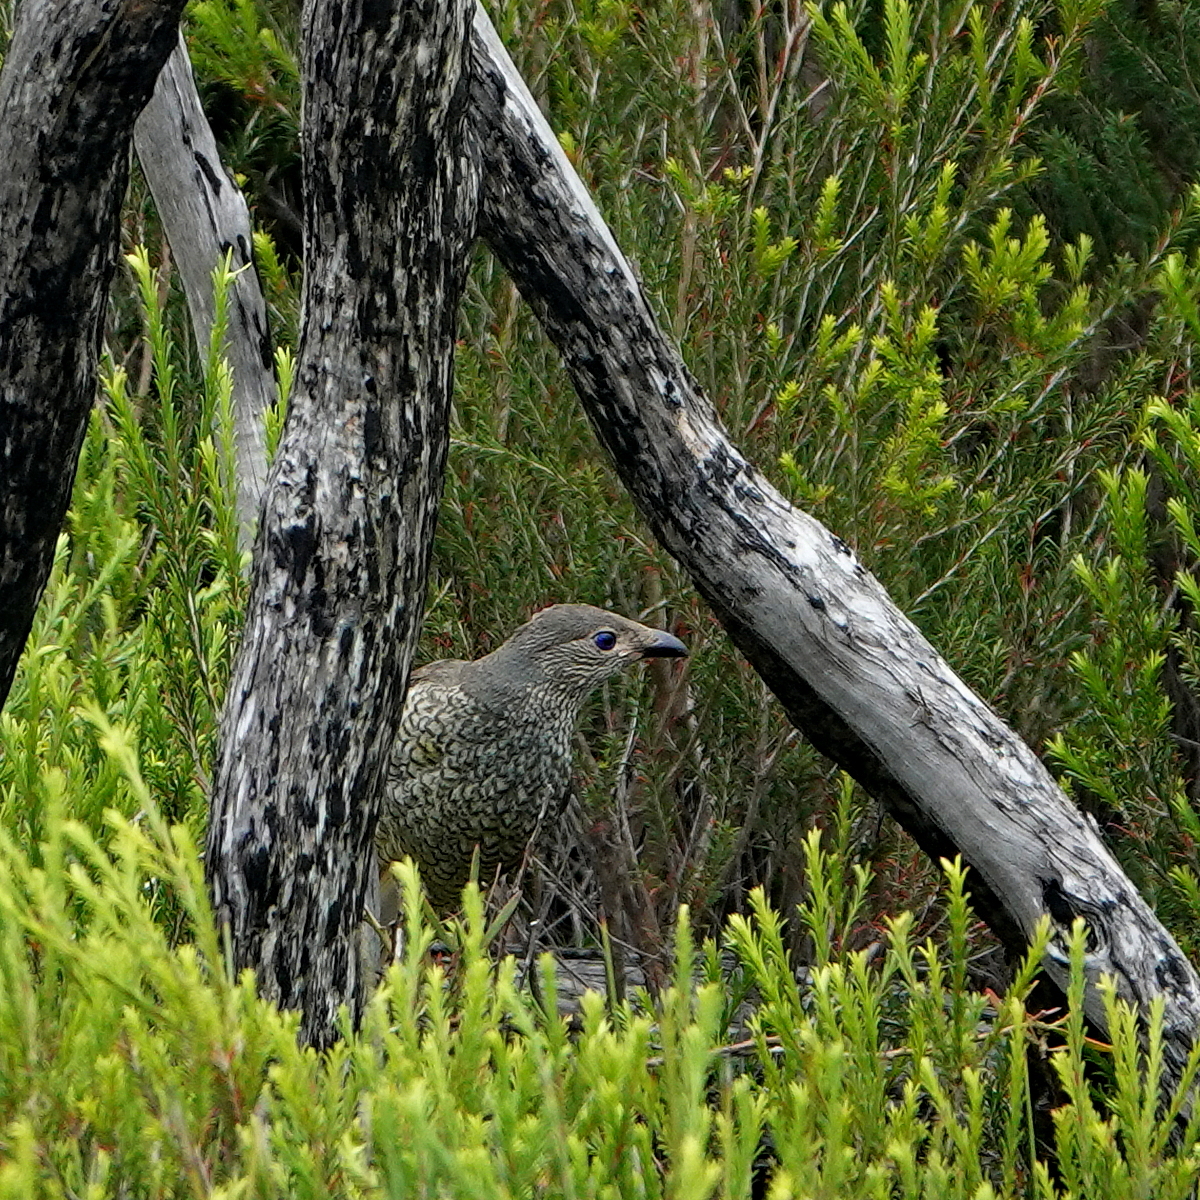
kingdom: Animalia
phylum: Chordata
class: Aves
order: Passeriformes
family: Ptilonorhynchidae
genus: Ptilonorhynchus
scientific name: Ptilonorhynchus violaceus
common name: Satin bowerbird
